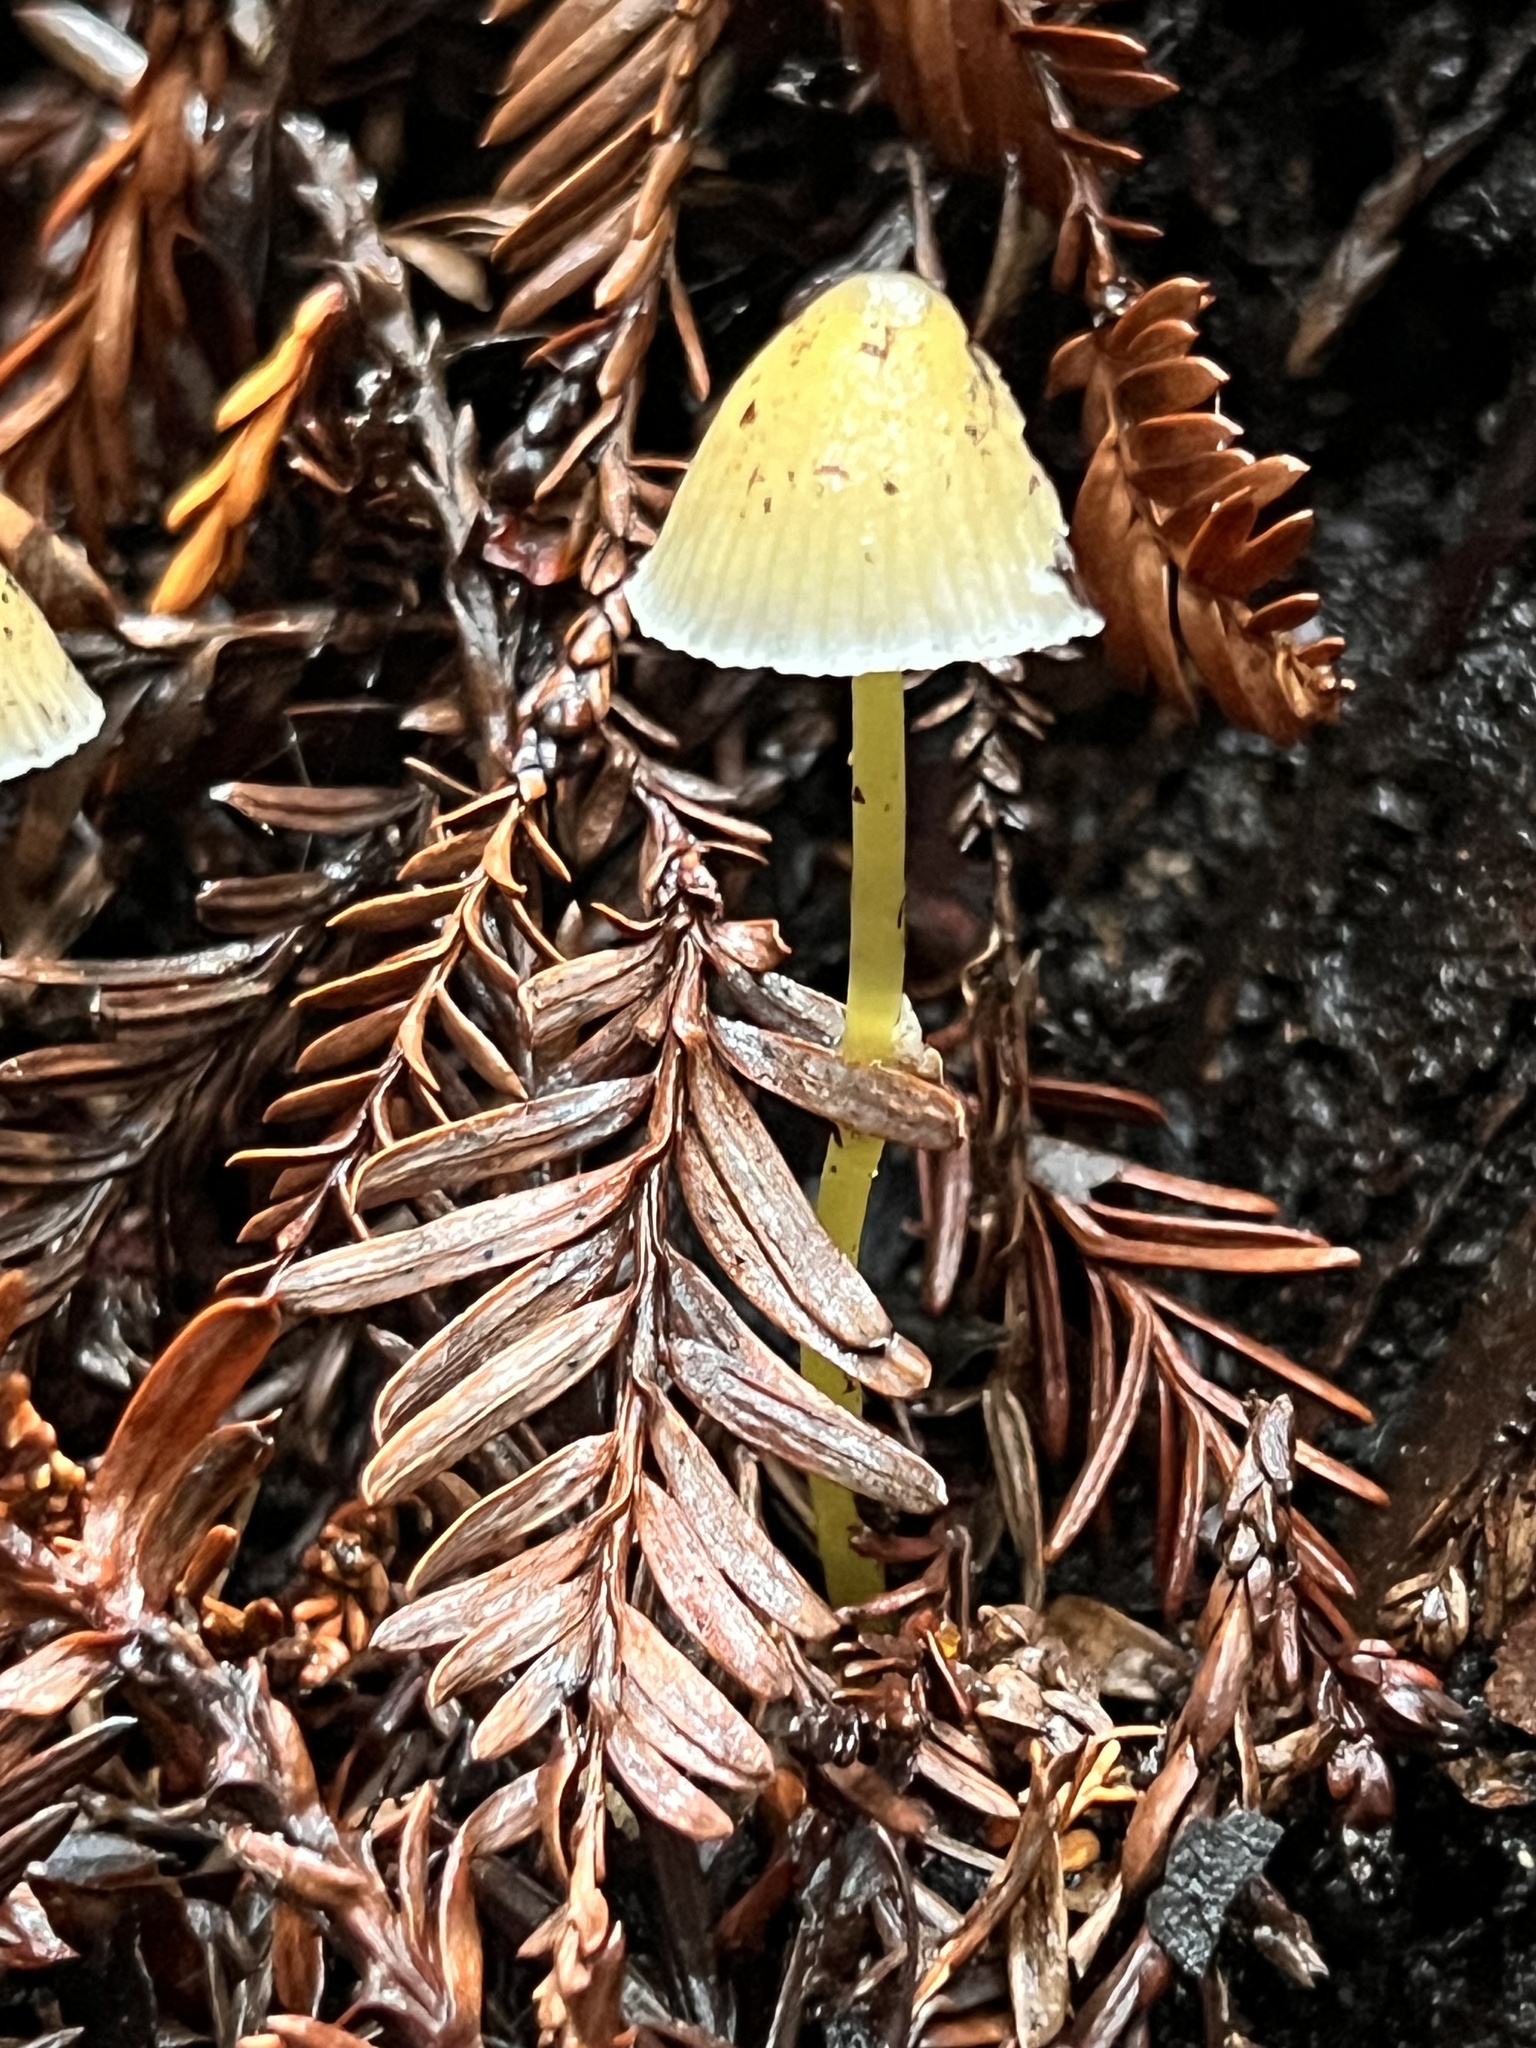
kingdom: Fungi
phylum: Basidiomycota
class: Agaricomycetes
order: Agaricales
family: Mycenaceae
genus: Mycena
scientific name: Mycena epipterygia
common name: Yellowleg bonnet
